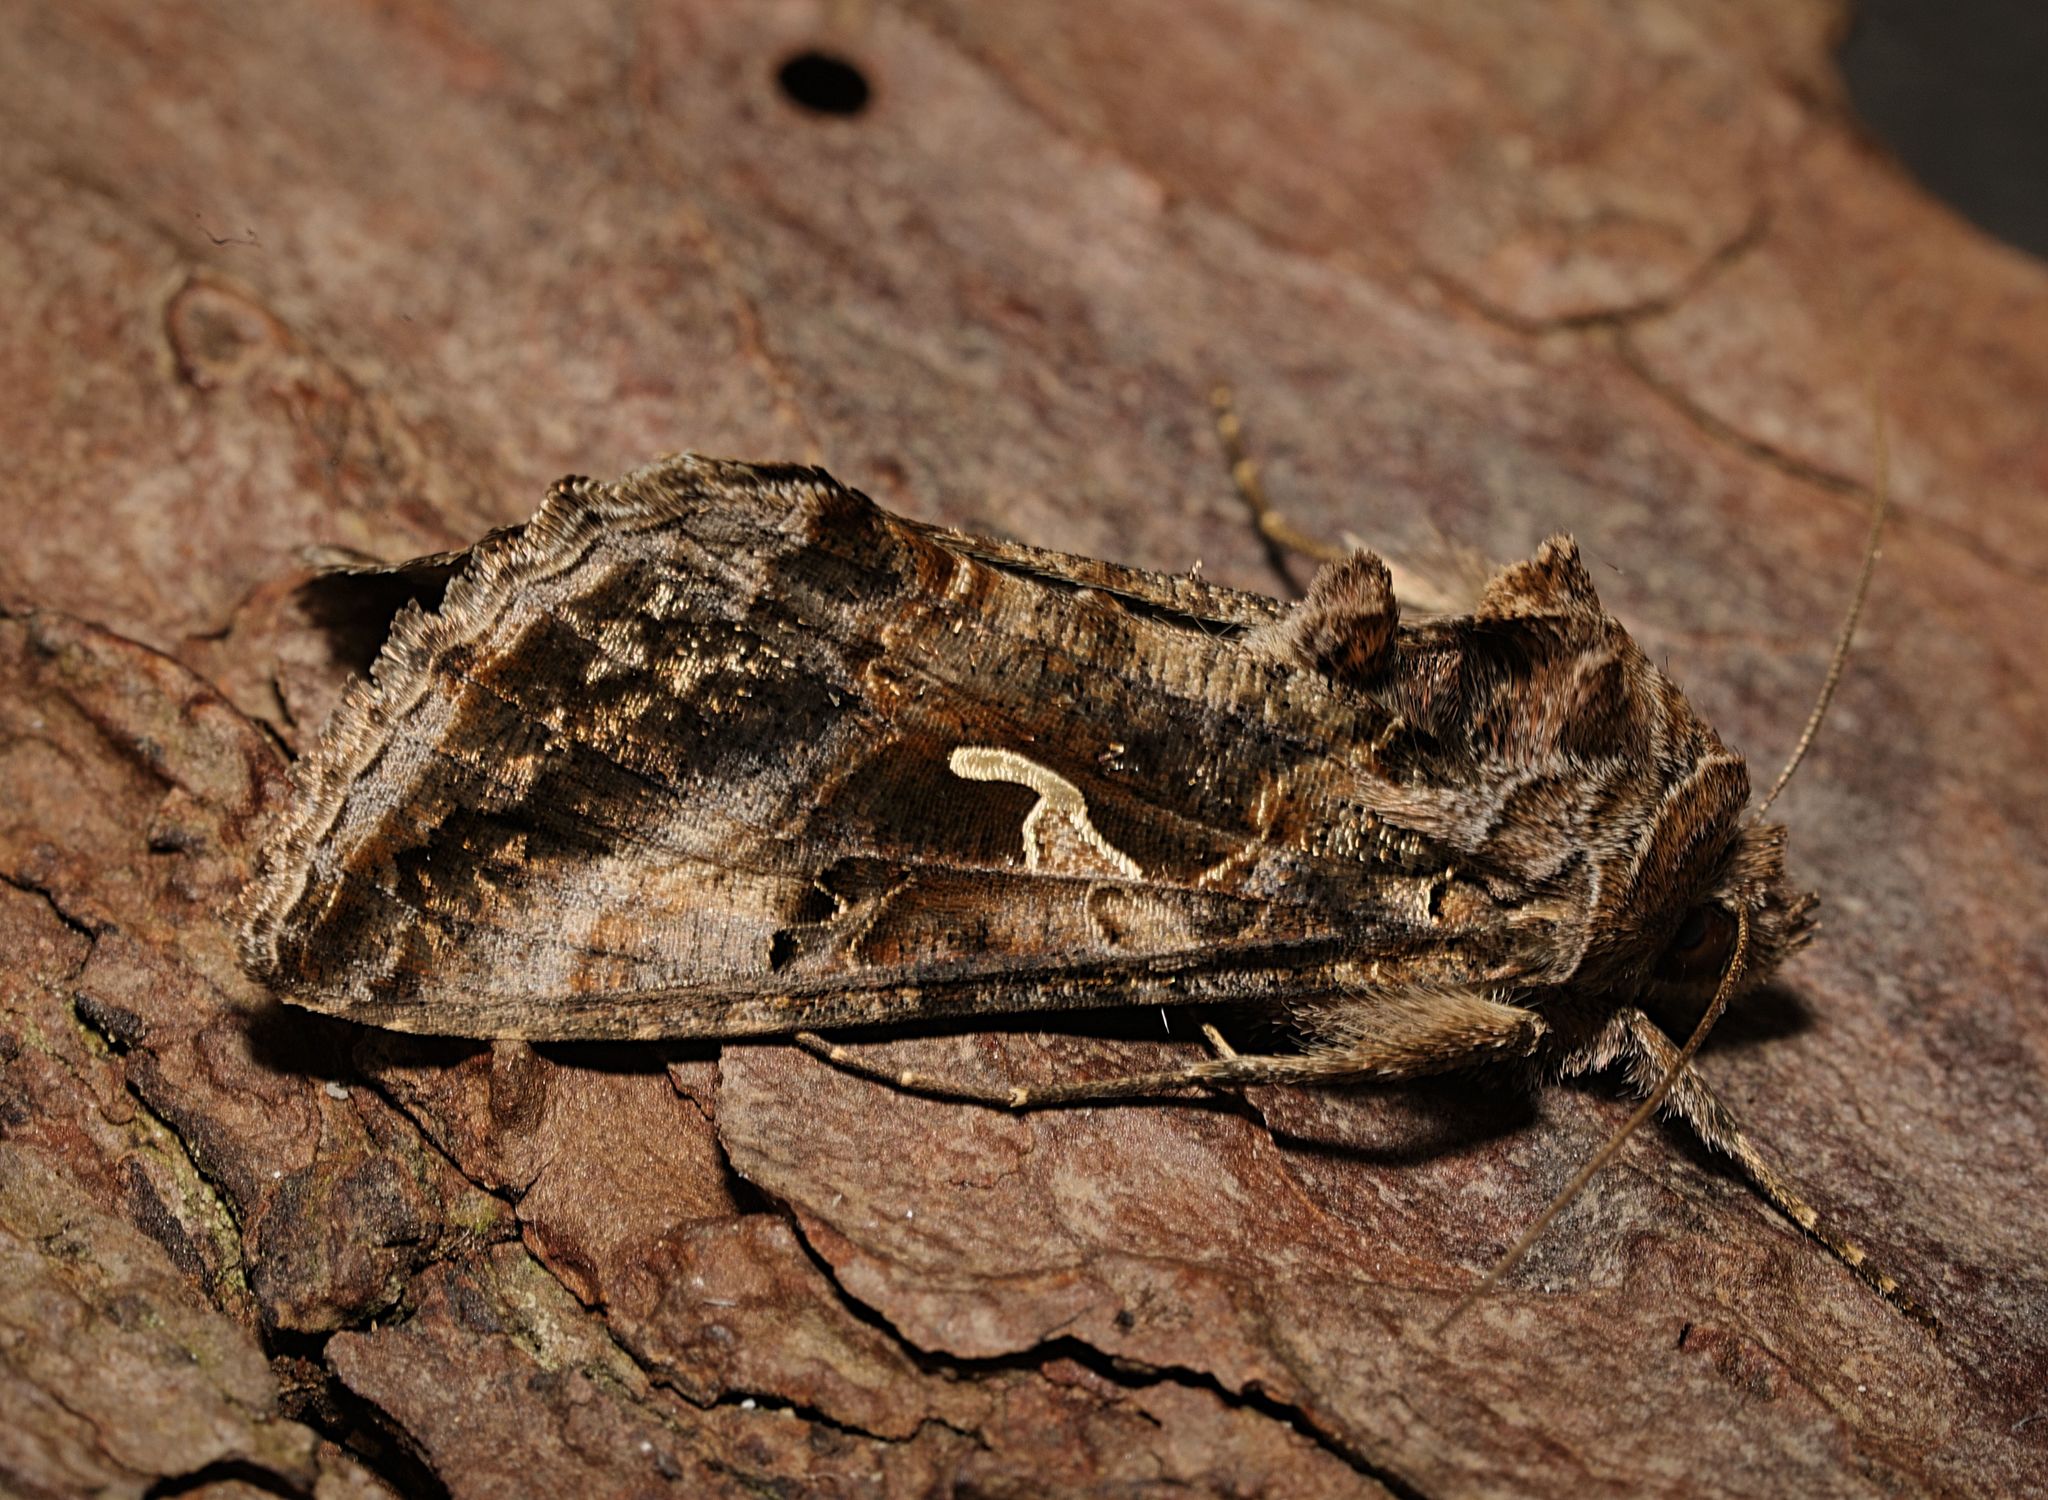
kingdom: Animalia
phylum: Arthropoda
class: Insecta
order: Lepidoptera
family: Noctuidae
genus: Autographa
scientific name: Autographa gamma
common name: Silver y
